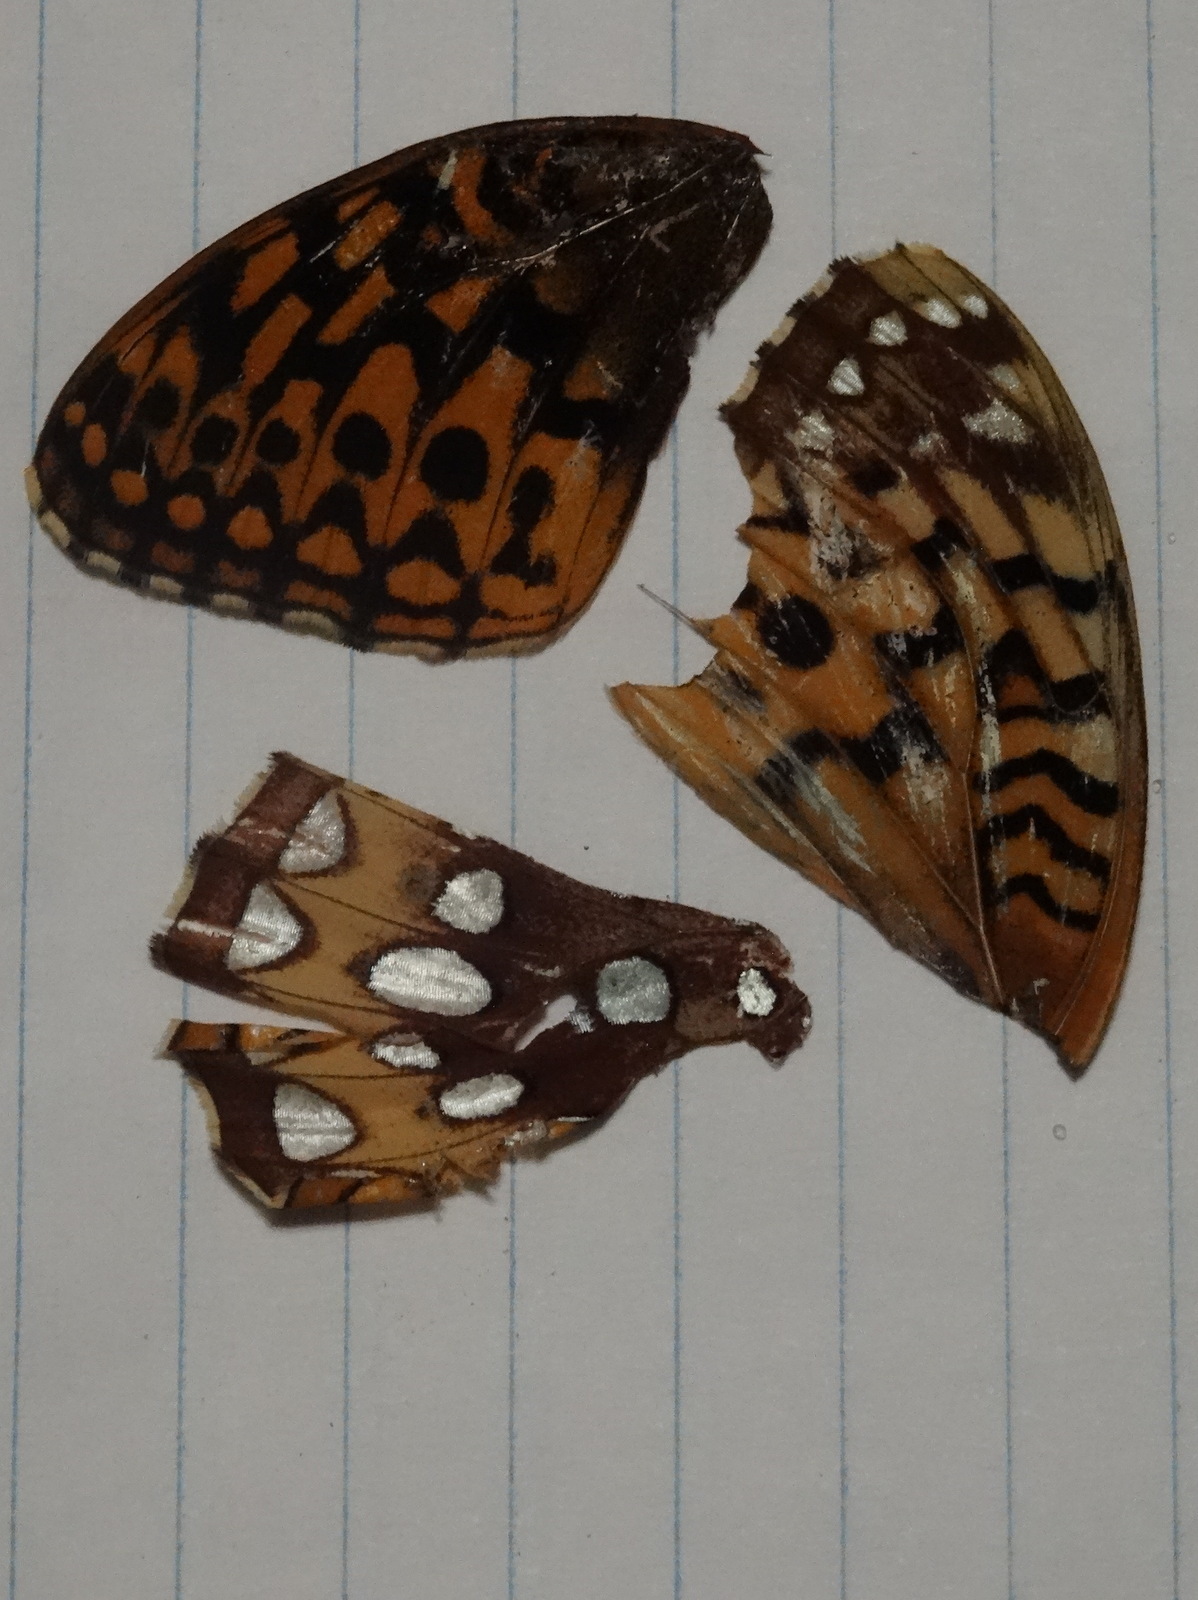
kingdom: Animalia
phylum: Arthropoda
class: Insecta
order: Lepidoptera
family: Nymphalidae
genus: Speyeria
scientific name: Speyeria cybele
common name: Great spangled fritillary
